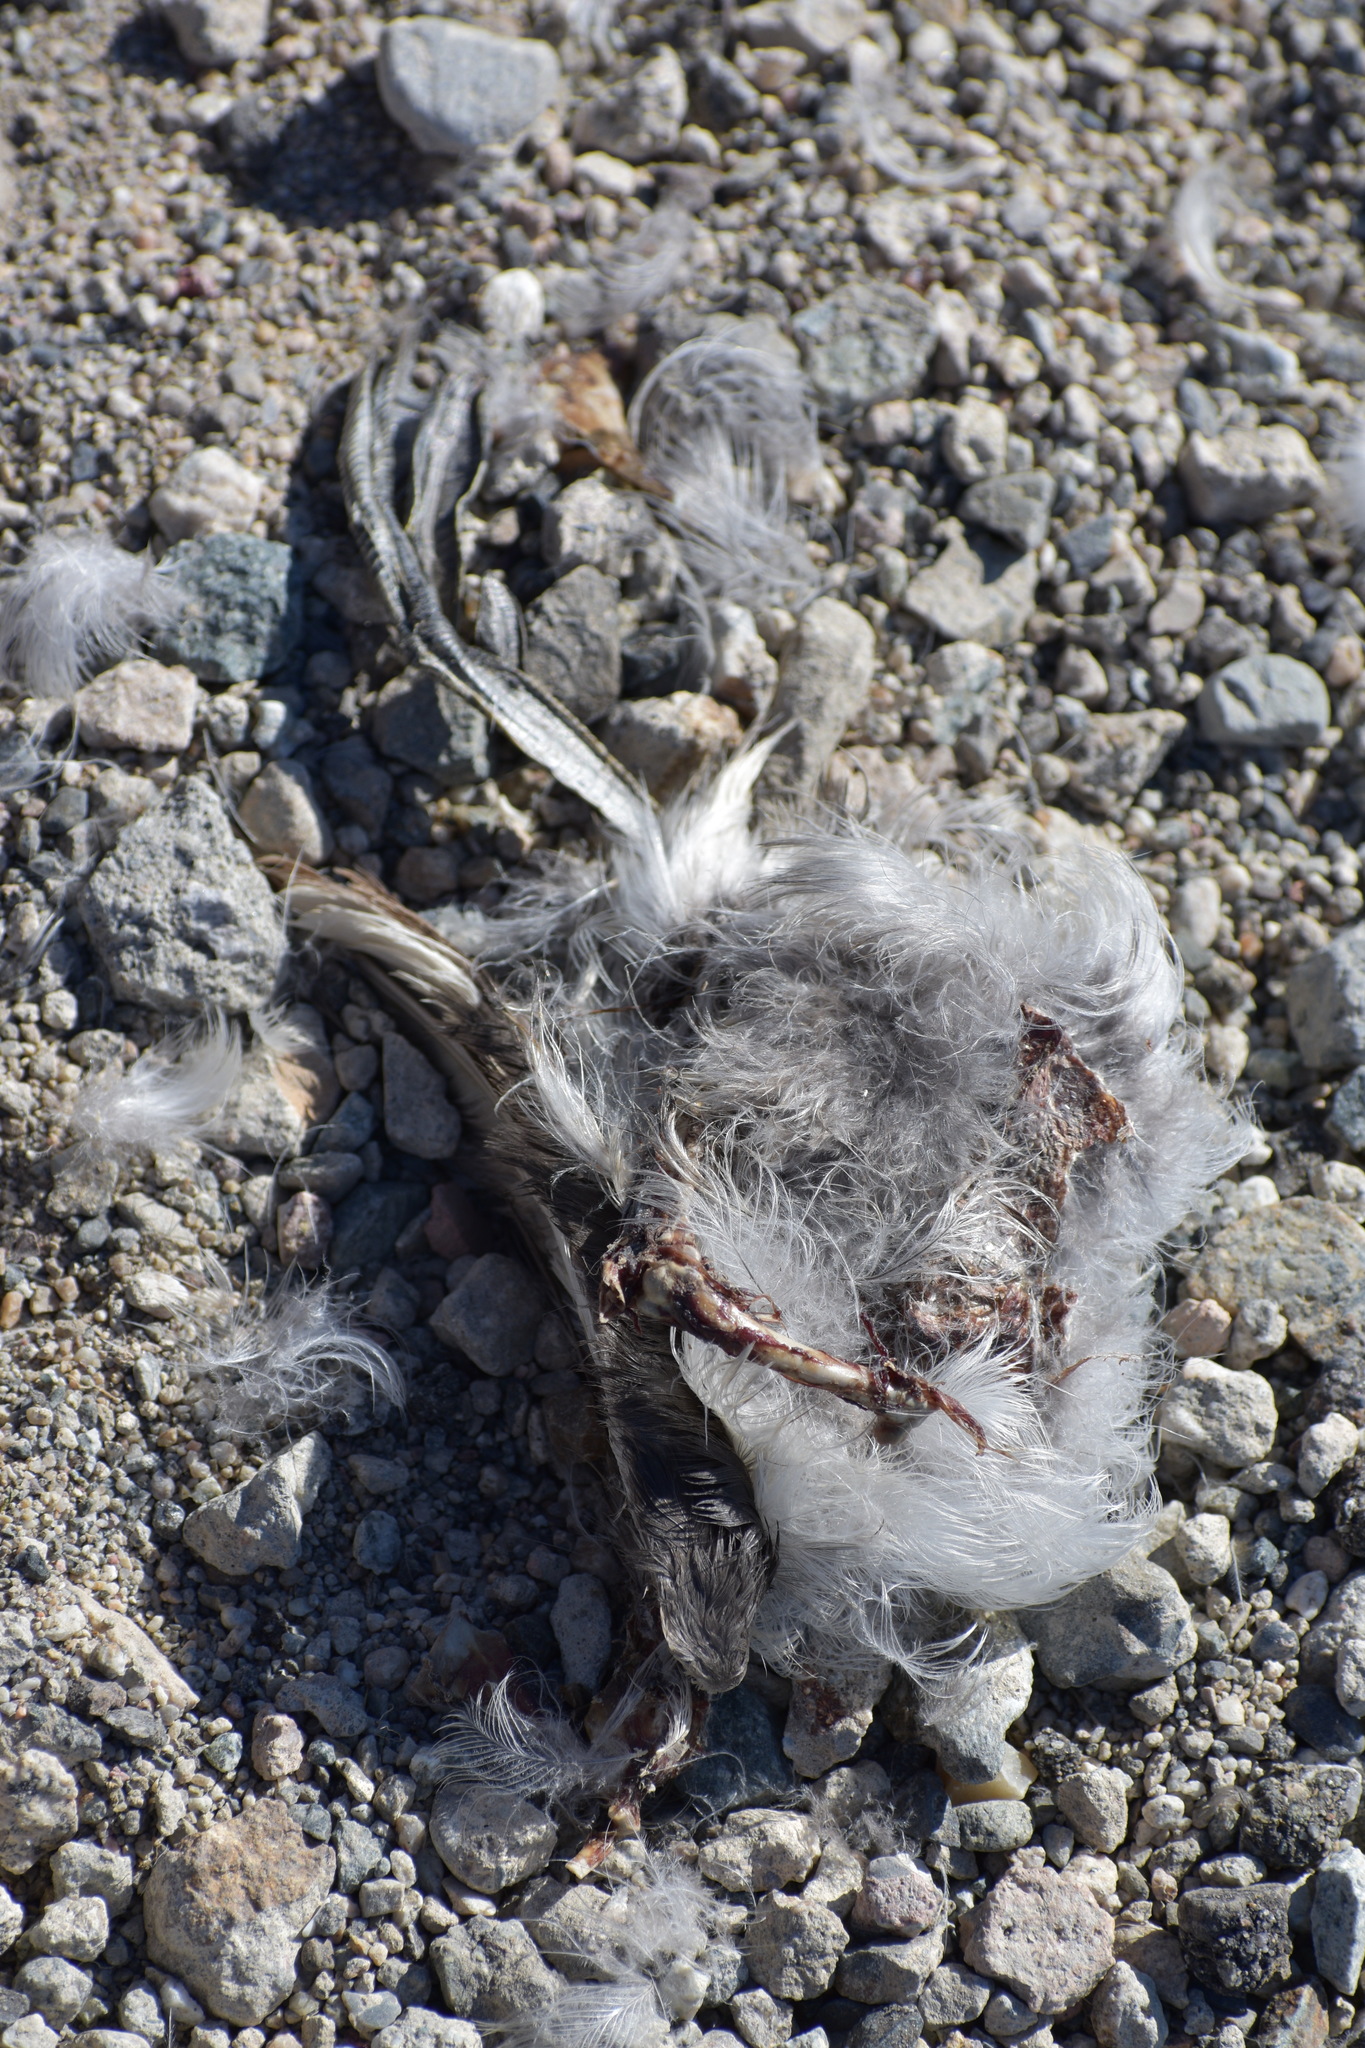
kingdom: Animalia
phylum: Chordata
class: Aves
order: Gruiformes
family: Rallidae
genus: Fulica
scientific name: Fulica americana
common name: American coot
